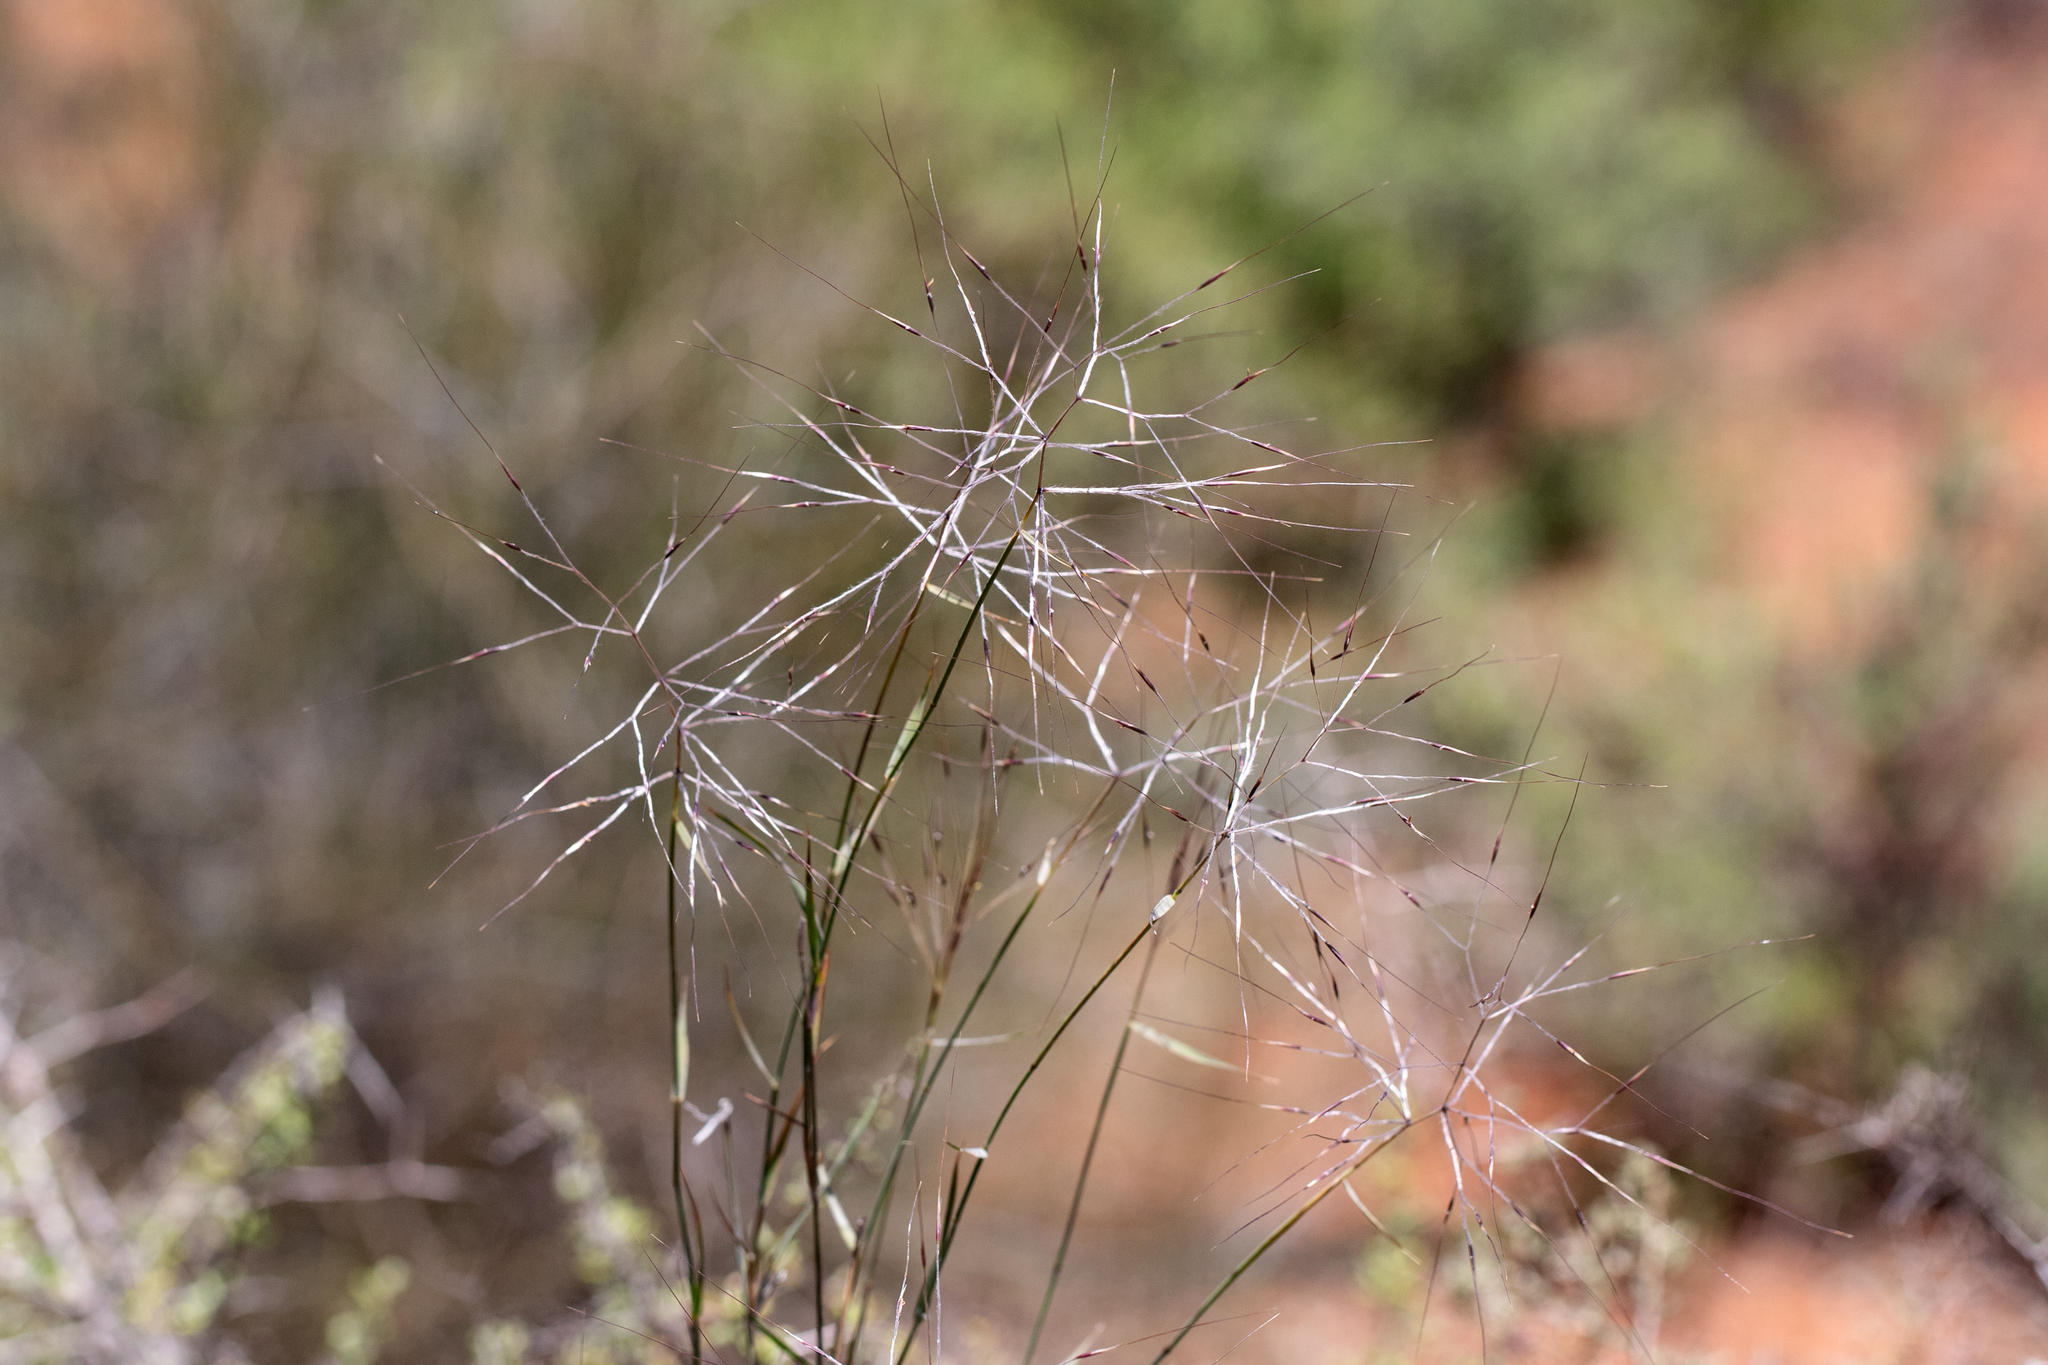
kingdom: Plantae
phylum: Tracheophyta
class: Liliopsida
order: Poales
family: Poaceae
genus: Austrostipa
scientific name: Austrostipa elegantissima
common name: Feather spear grass
